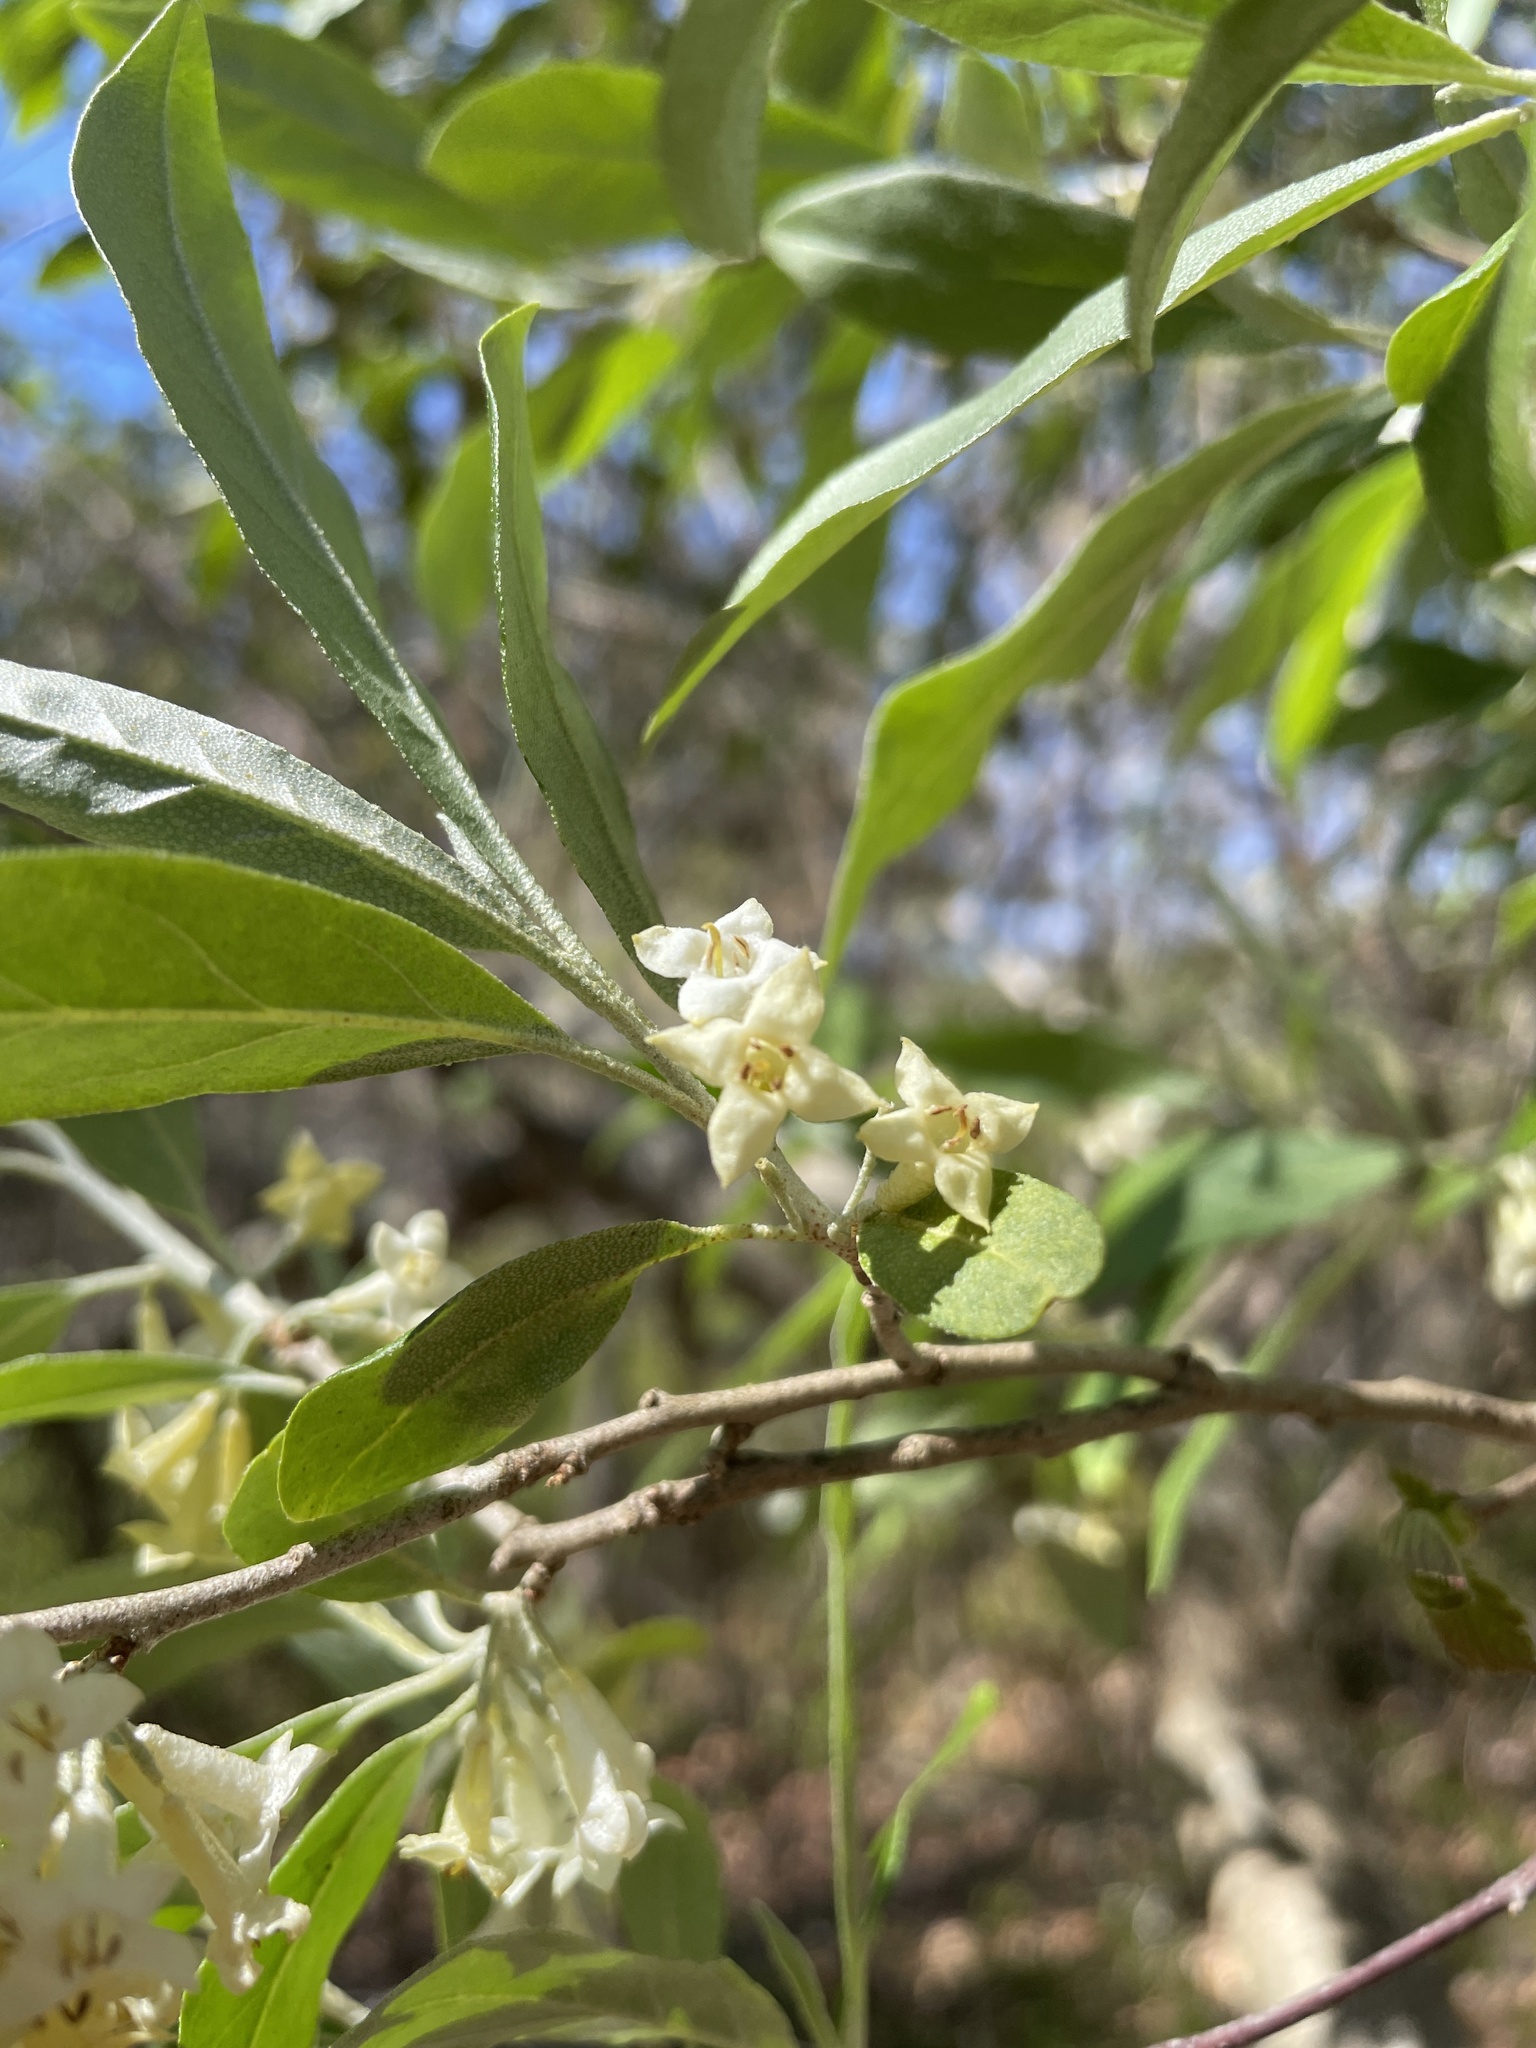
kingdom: Plantae
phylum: Tracheophyta
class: Magnoliopsida
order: Rosales
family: Elaeagnaceae
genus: Elaeagnus
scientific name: Elaeagnus umbellata
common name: Autumn olive
